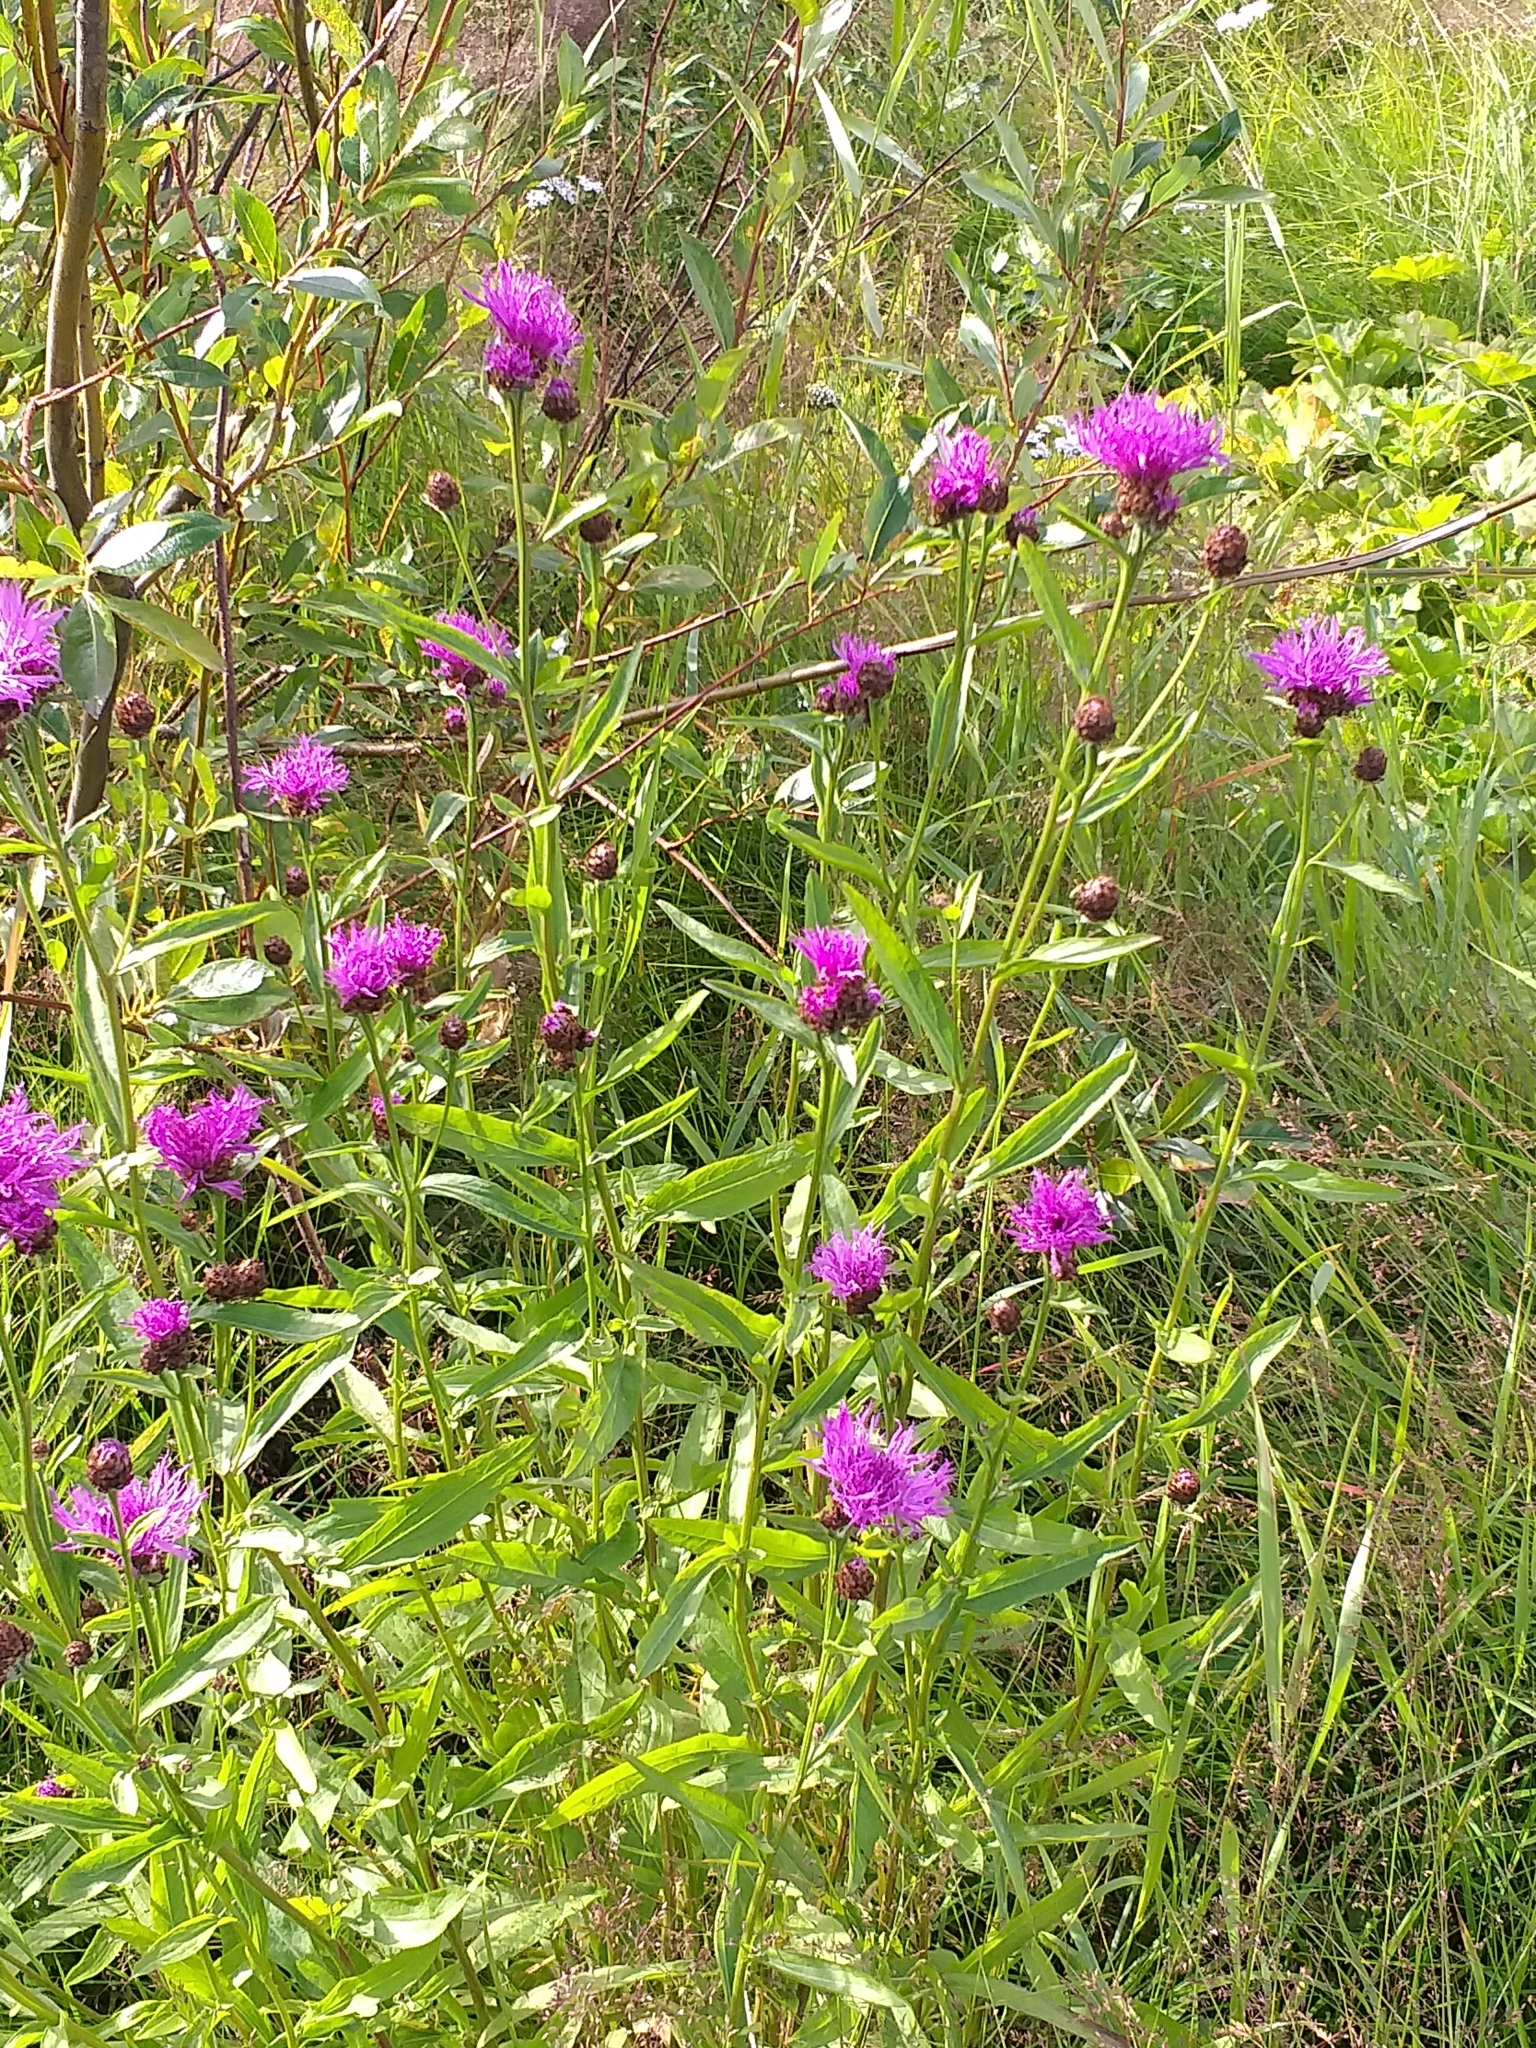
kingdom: Plantae
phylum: Tracheophyta
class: Magnoliopsida
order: Asterales
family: Asteraceae
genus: Centaurea
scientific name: Centaurea jacea
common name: Brown knapweed
